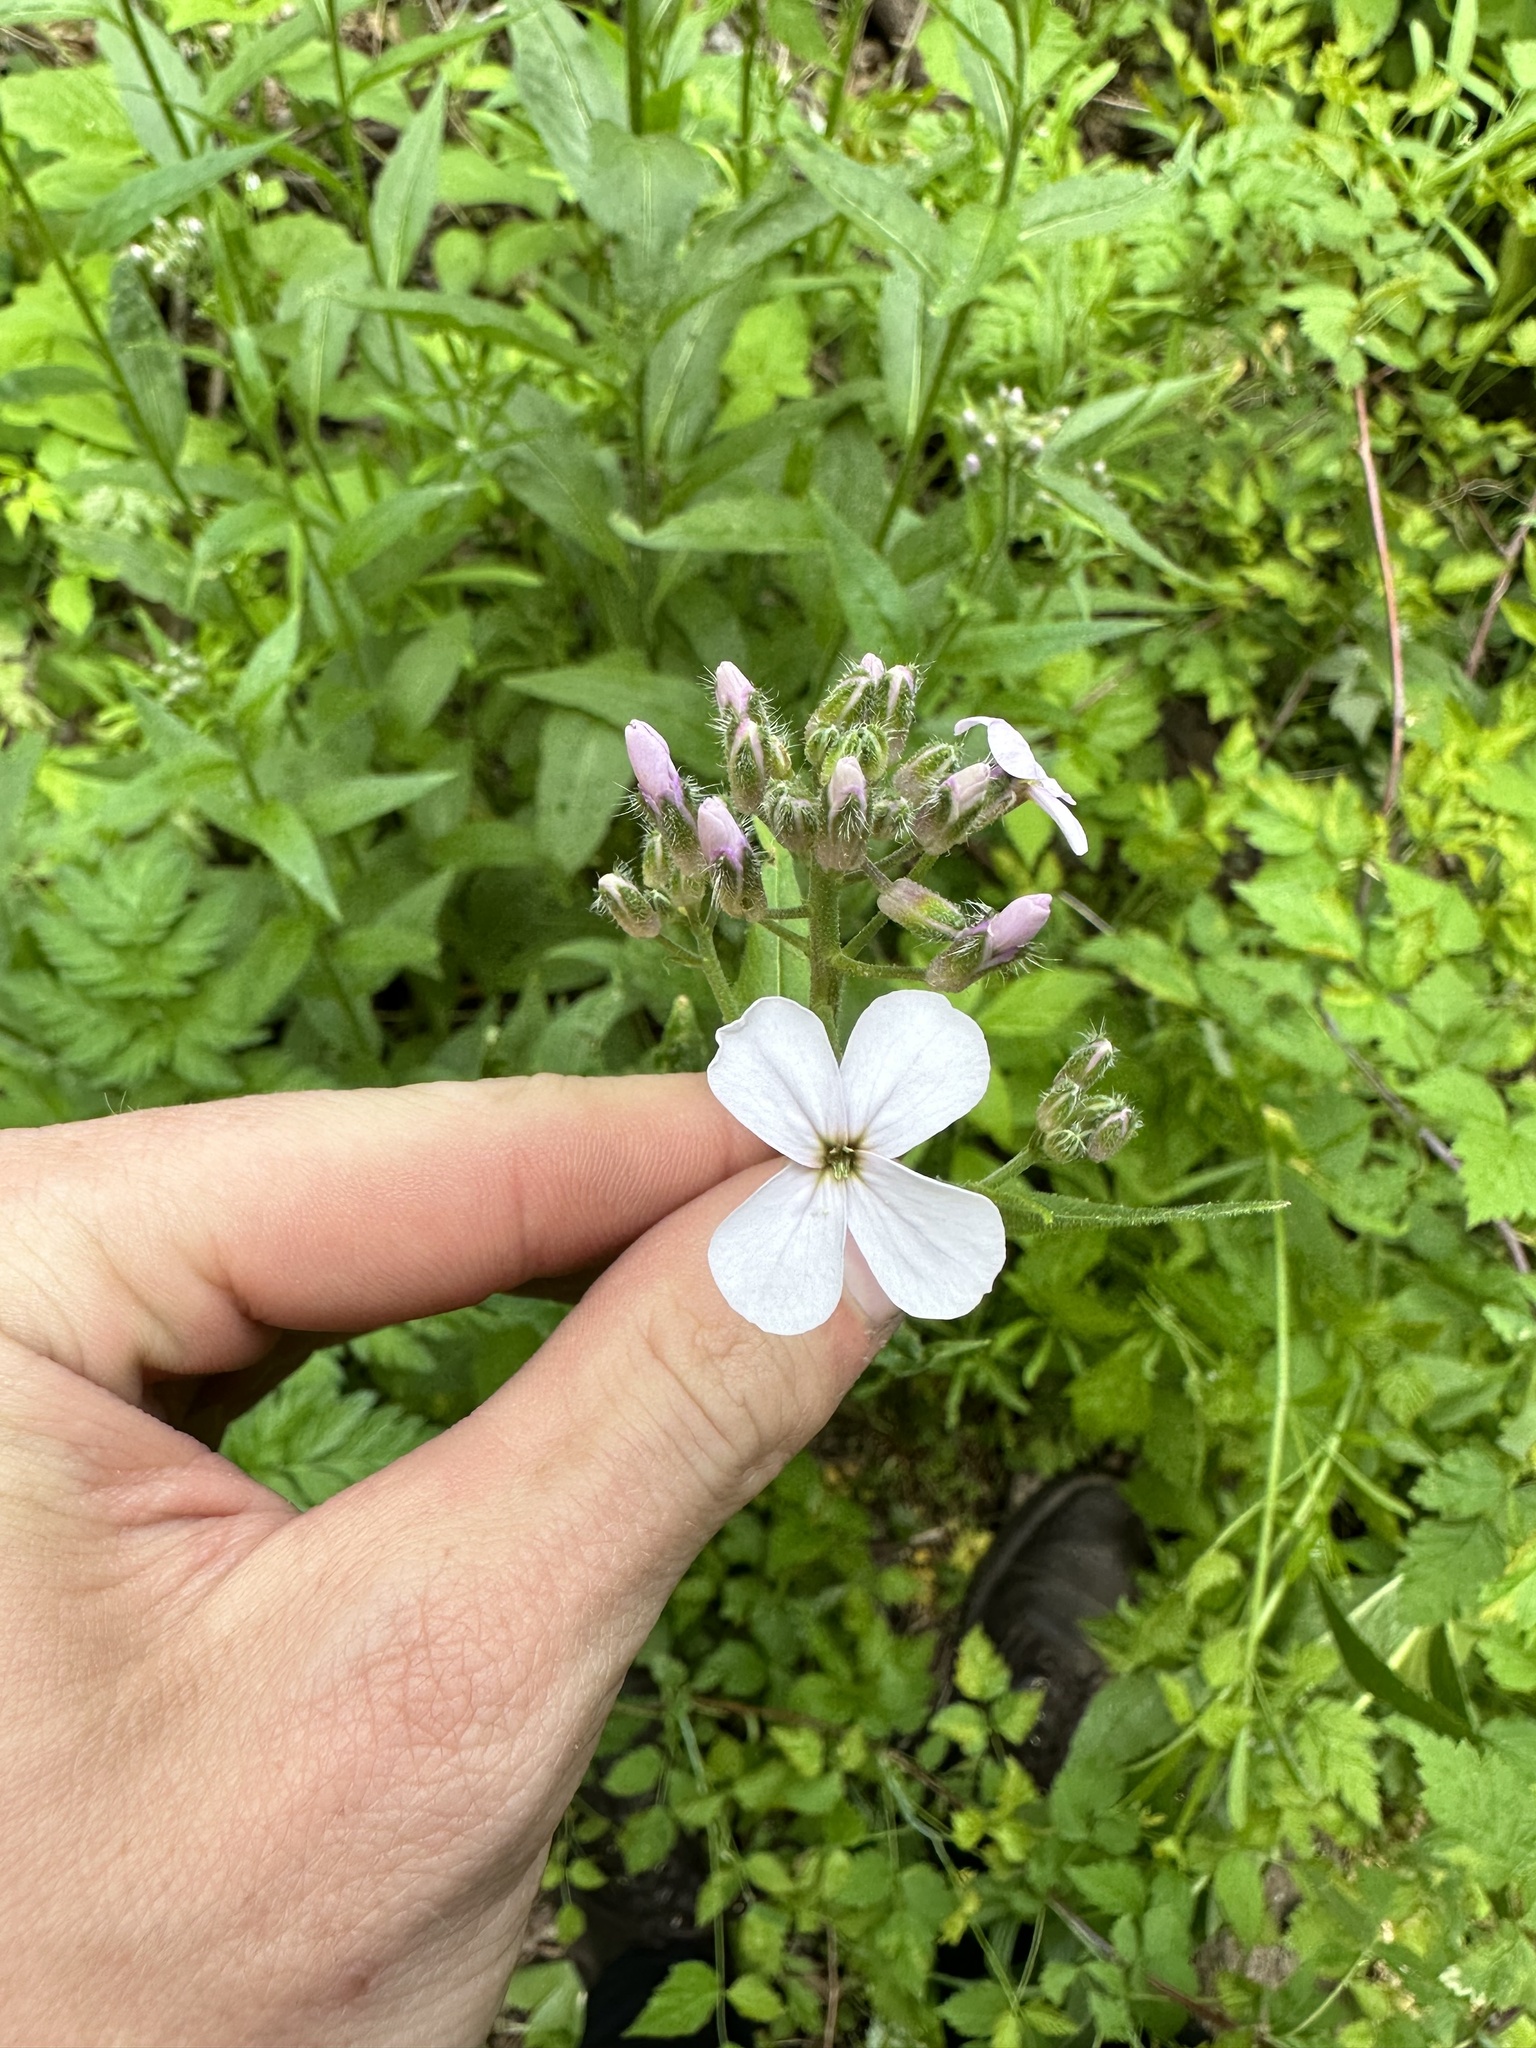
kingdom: Plantae
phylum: Tracheophyta
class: Magnoliopsida
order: Brassicales
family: Brassicaceae
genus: Hesperis
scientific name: Hesperis matronalis
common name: Dame's-violet
